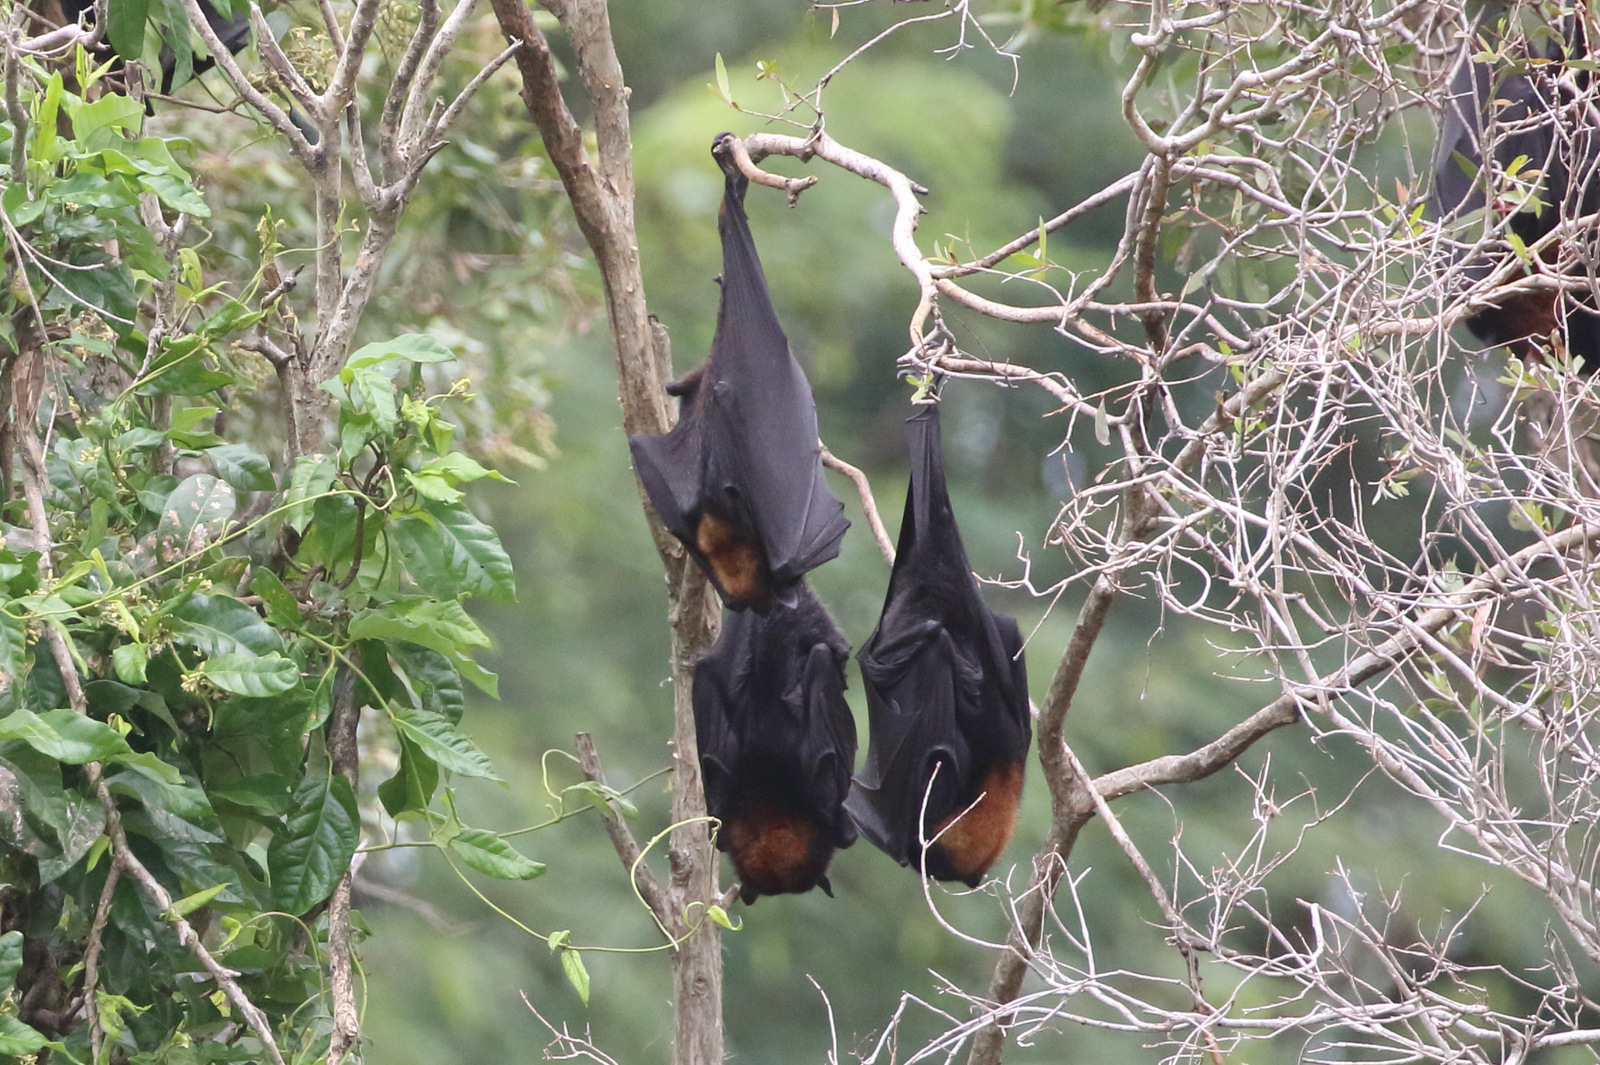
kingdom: Animalia
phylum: Chordata
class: Mammalia
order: Chiroptera
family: Pteropodidae
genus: Pteropus
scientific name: Pteropus alecto
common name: Black flying fox
